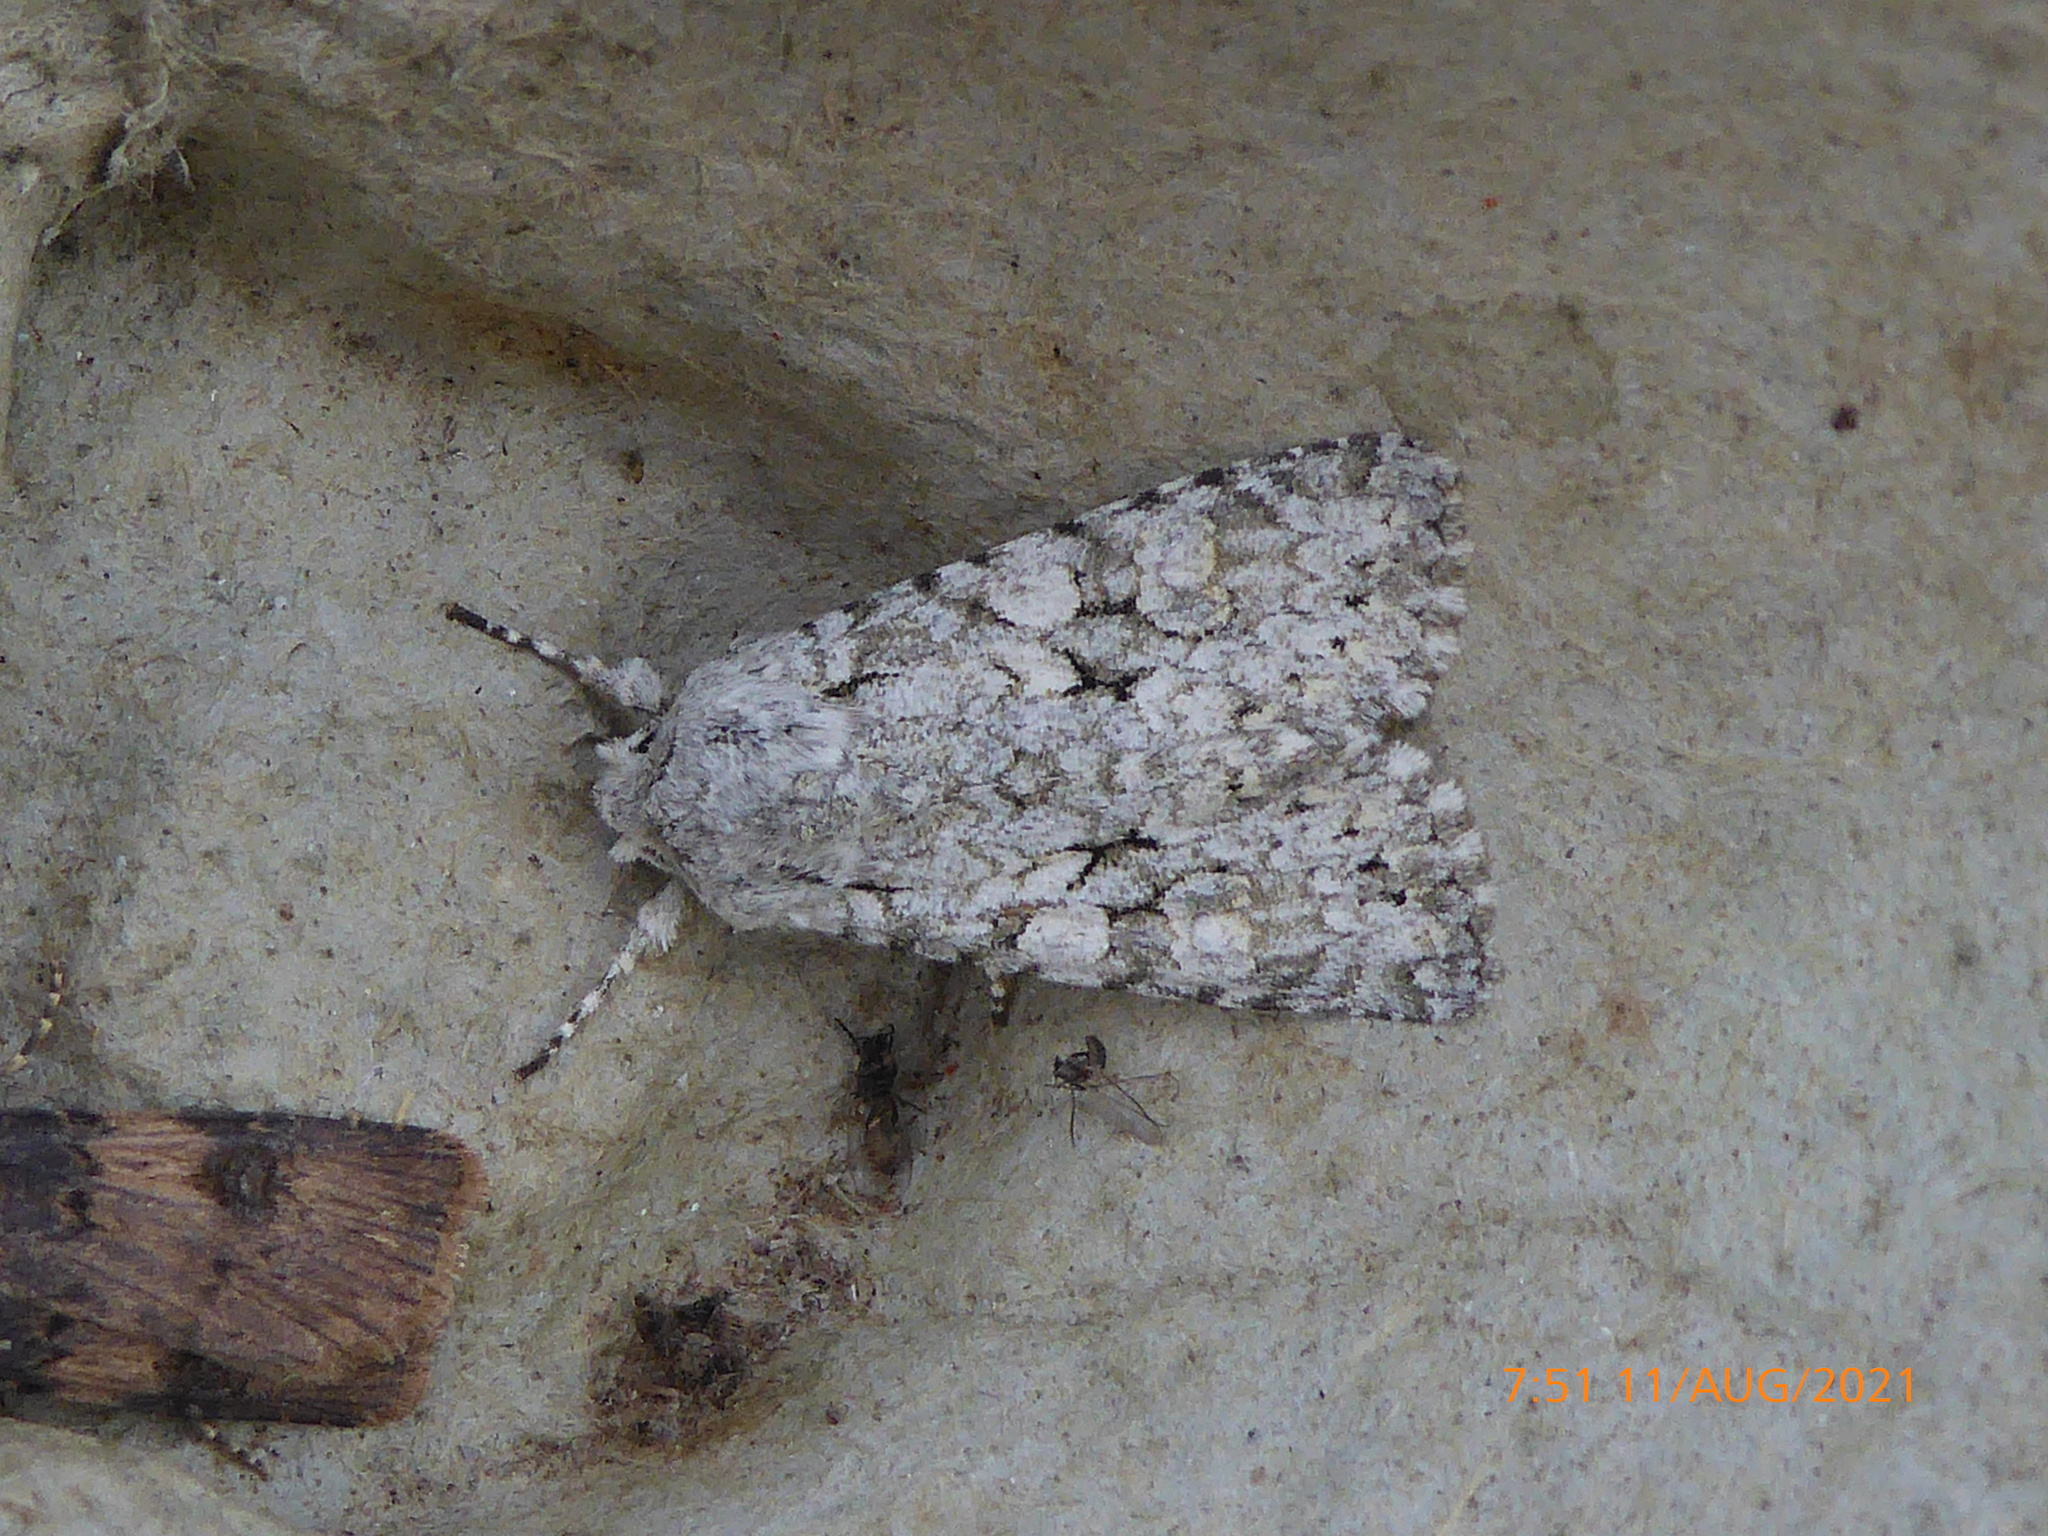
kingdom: Animalia
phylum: Arthropoda
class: Insecta
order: Lepidoptera
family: Noctuidae
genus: Antitype
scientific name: Antitype chi
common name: Grey chi
